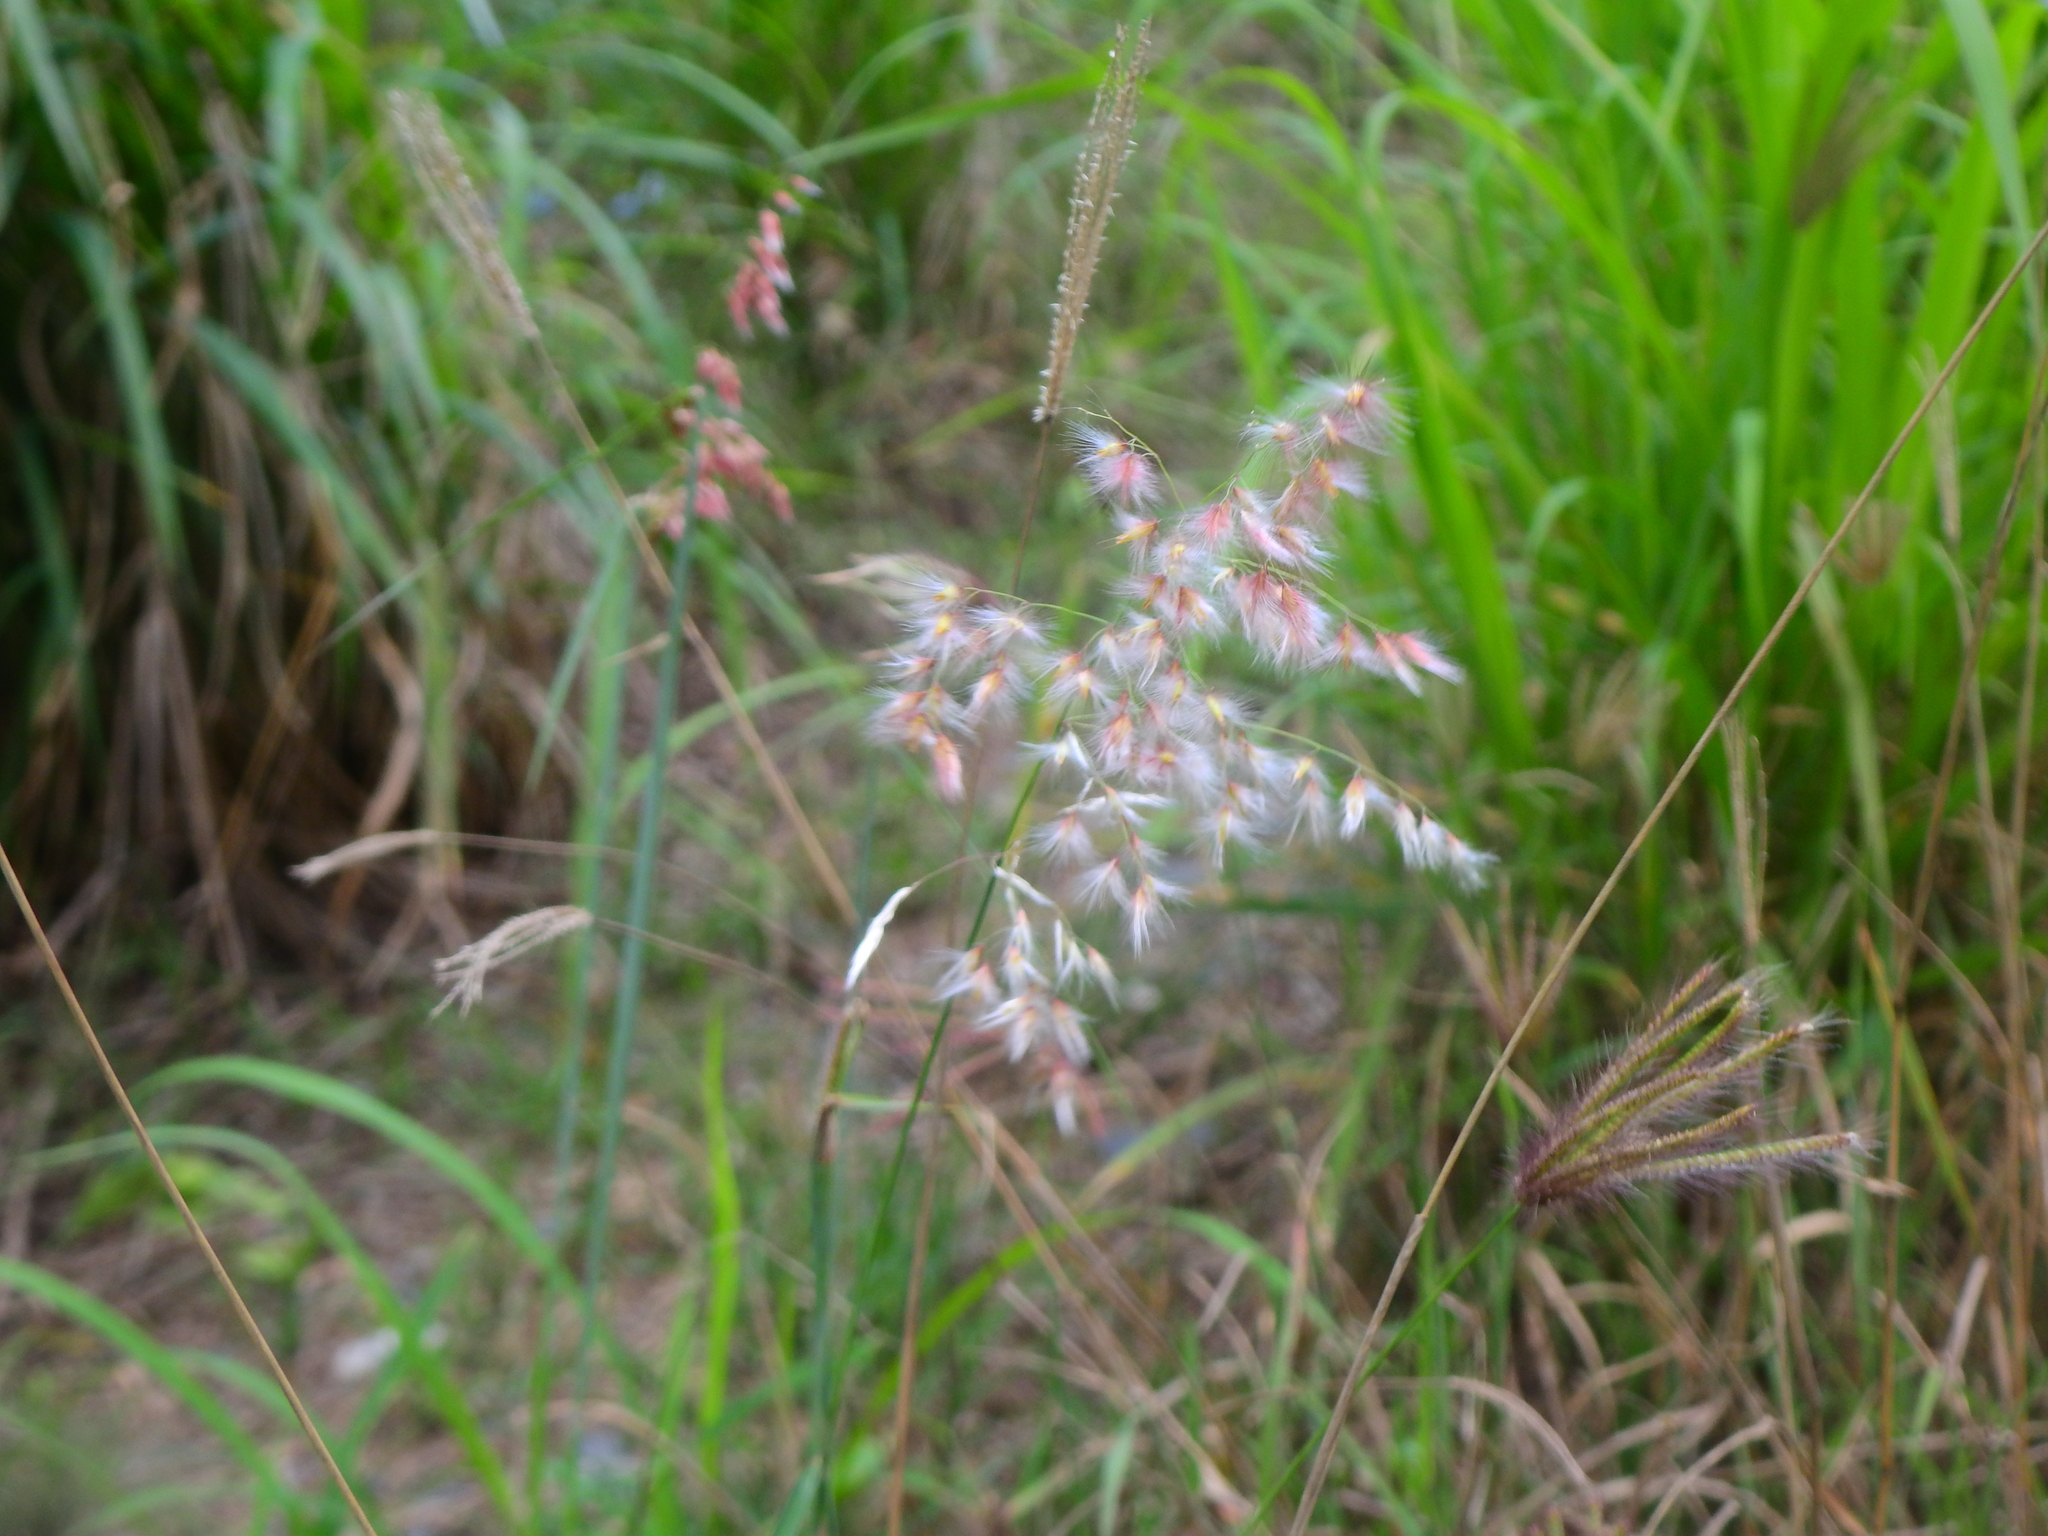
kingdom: Plantae
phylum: Tracheophyta
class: Liliopsida
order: Poales
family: Poaceae
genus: Melinis
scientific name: Melinis repens
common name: Rose natal grass
